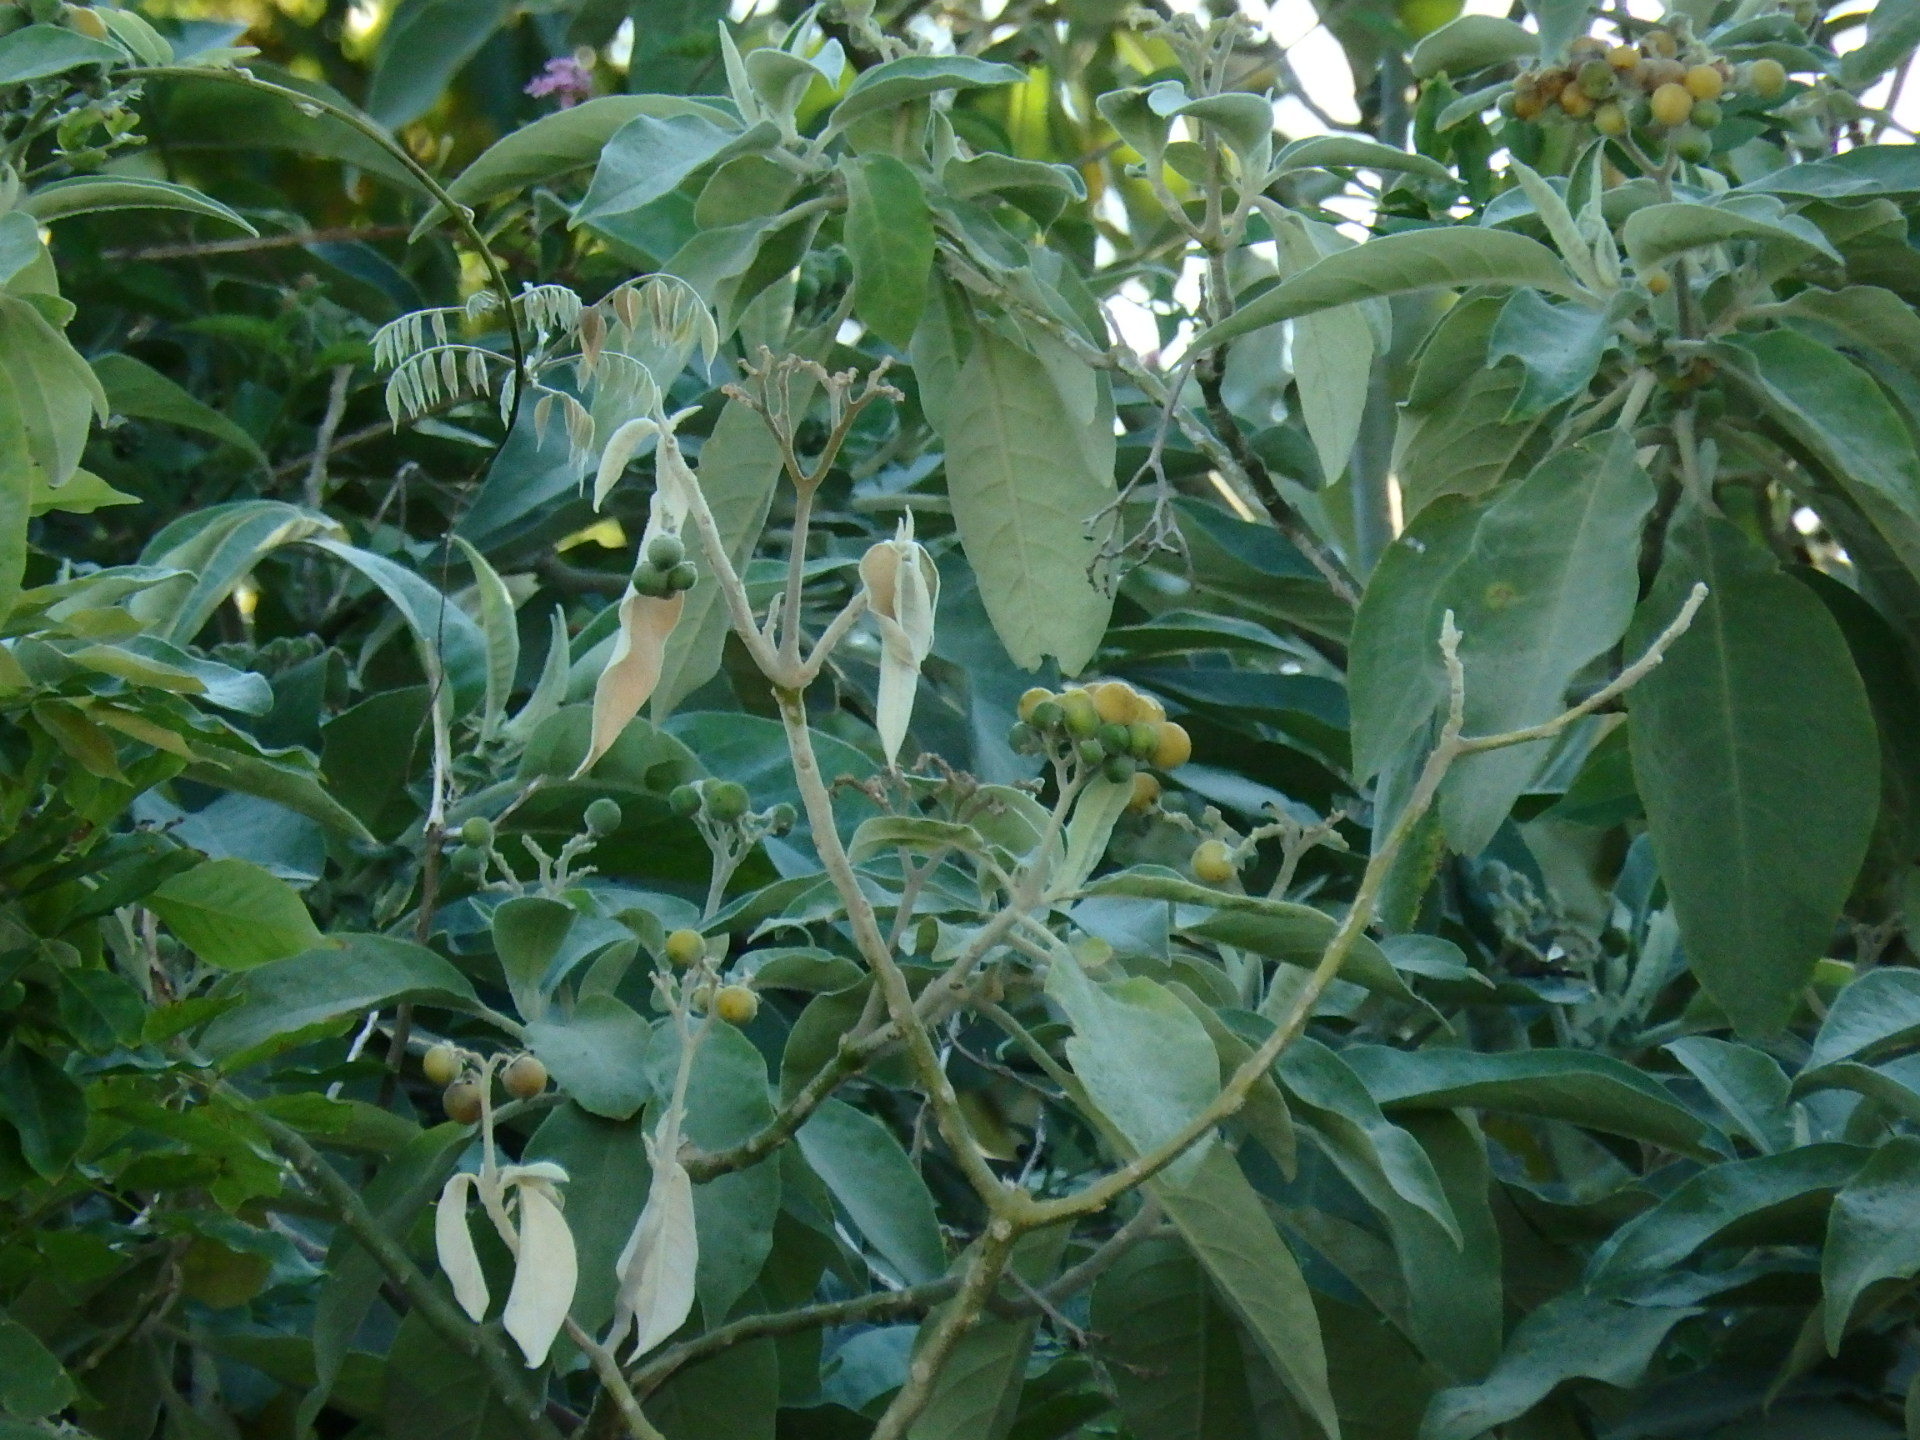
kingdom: Plantae
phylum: Tracheophyta
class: Magnoliopsida
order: Solanales
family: Solanaceae
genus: Solanum
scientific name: Solanum mauritianum
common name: Earleaf nightshade
